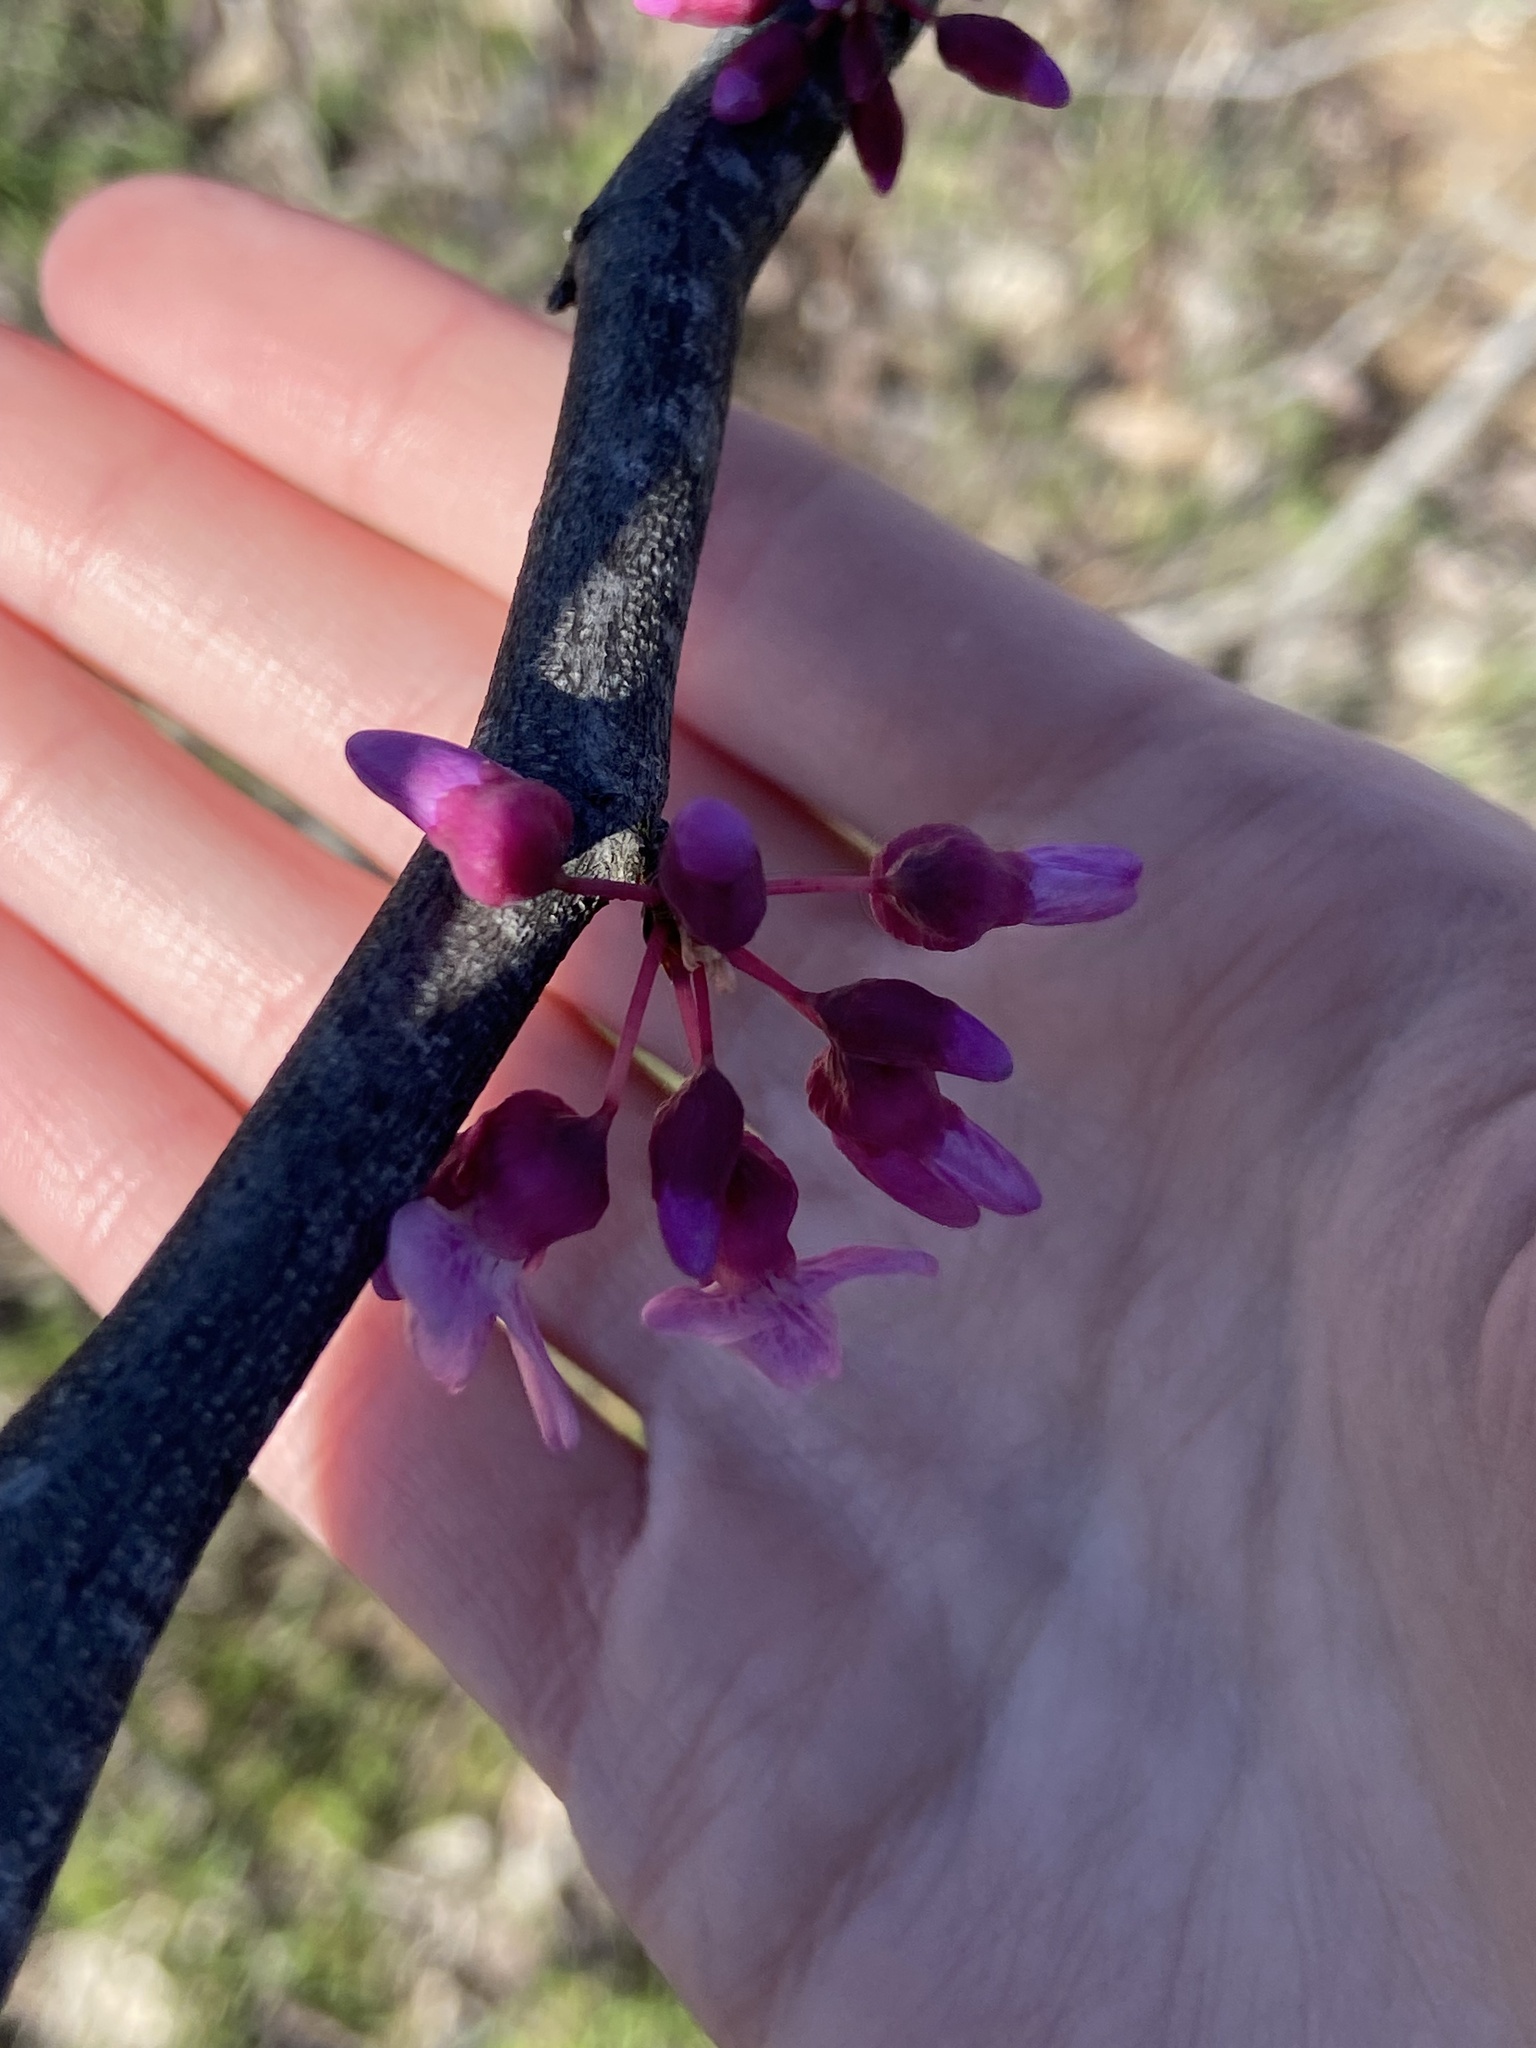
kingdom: Plantae
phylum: Tracheophyta
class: Magnoliopsida
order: Fabales
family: Fabaceae
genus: Cercis
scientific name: Cercis canadensis
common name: Eastern redbud
